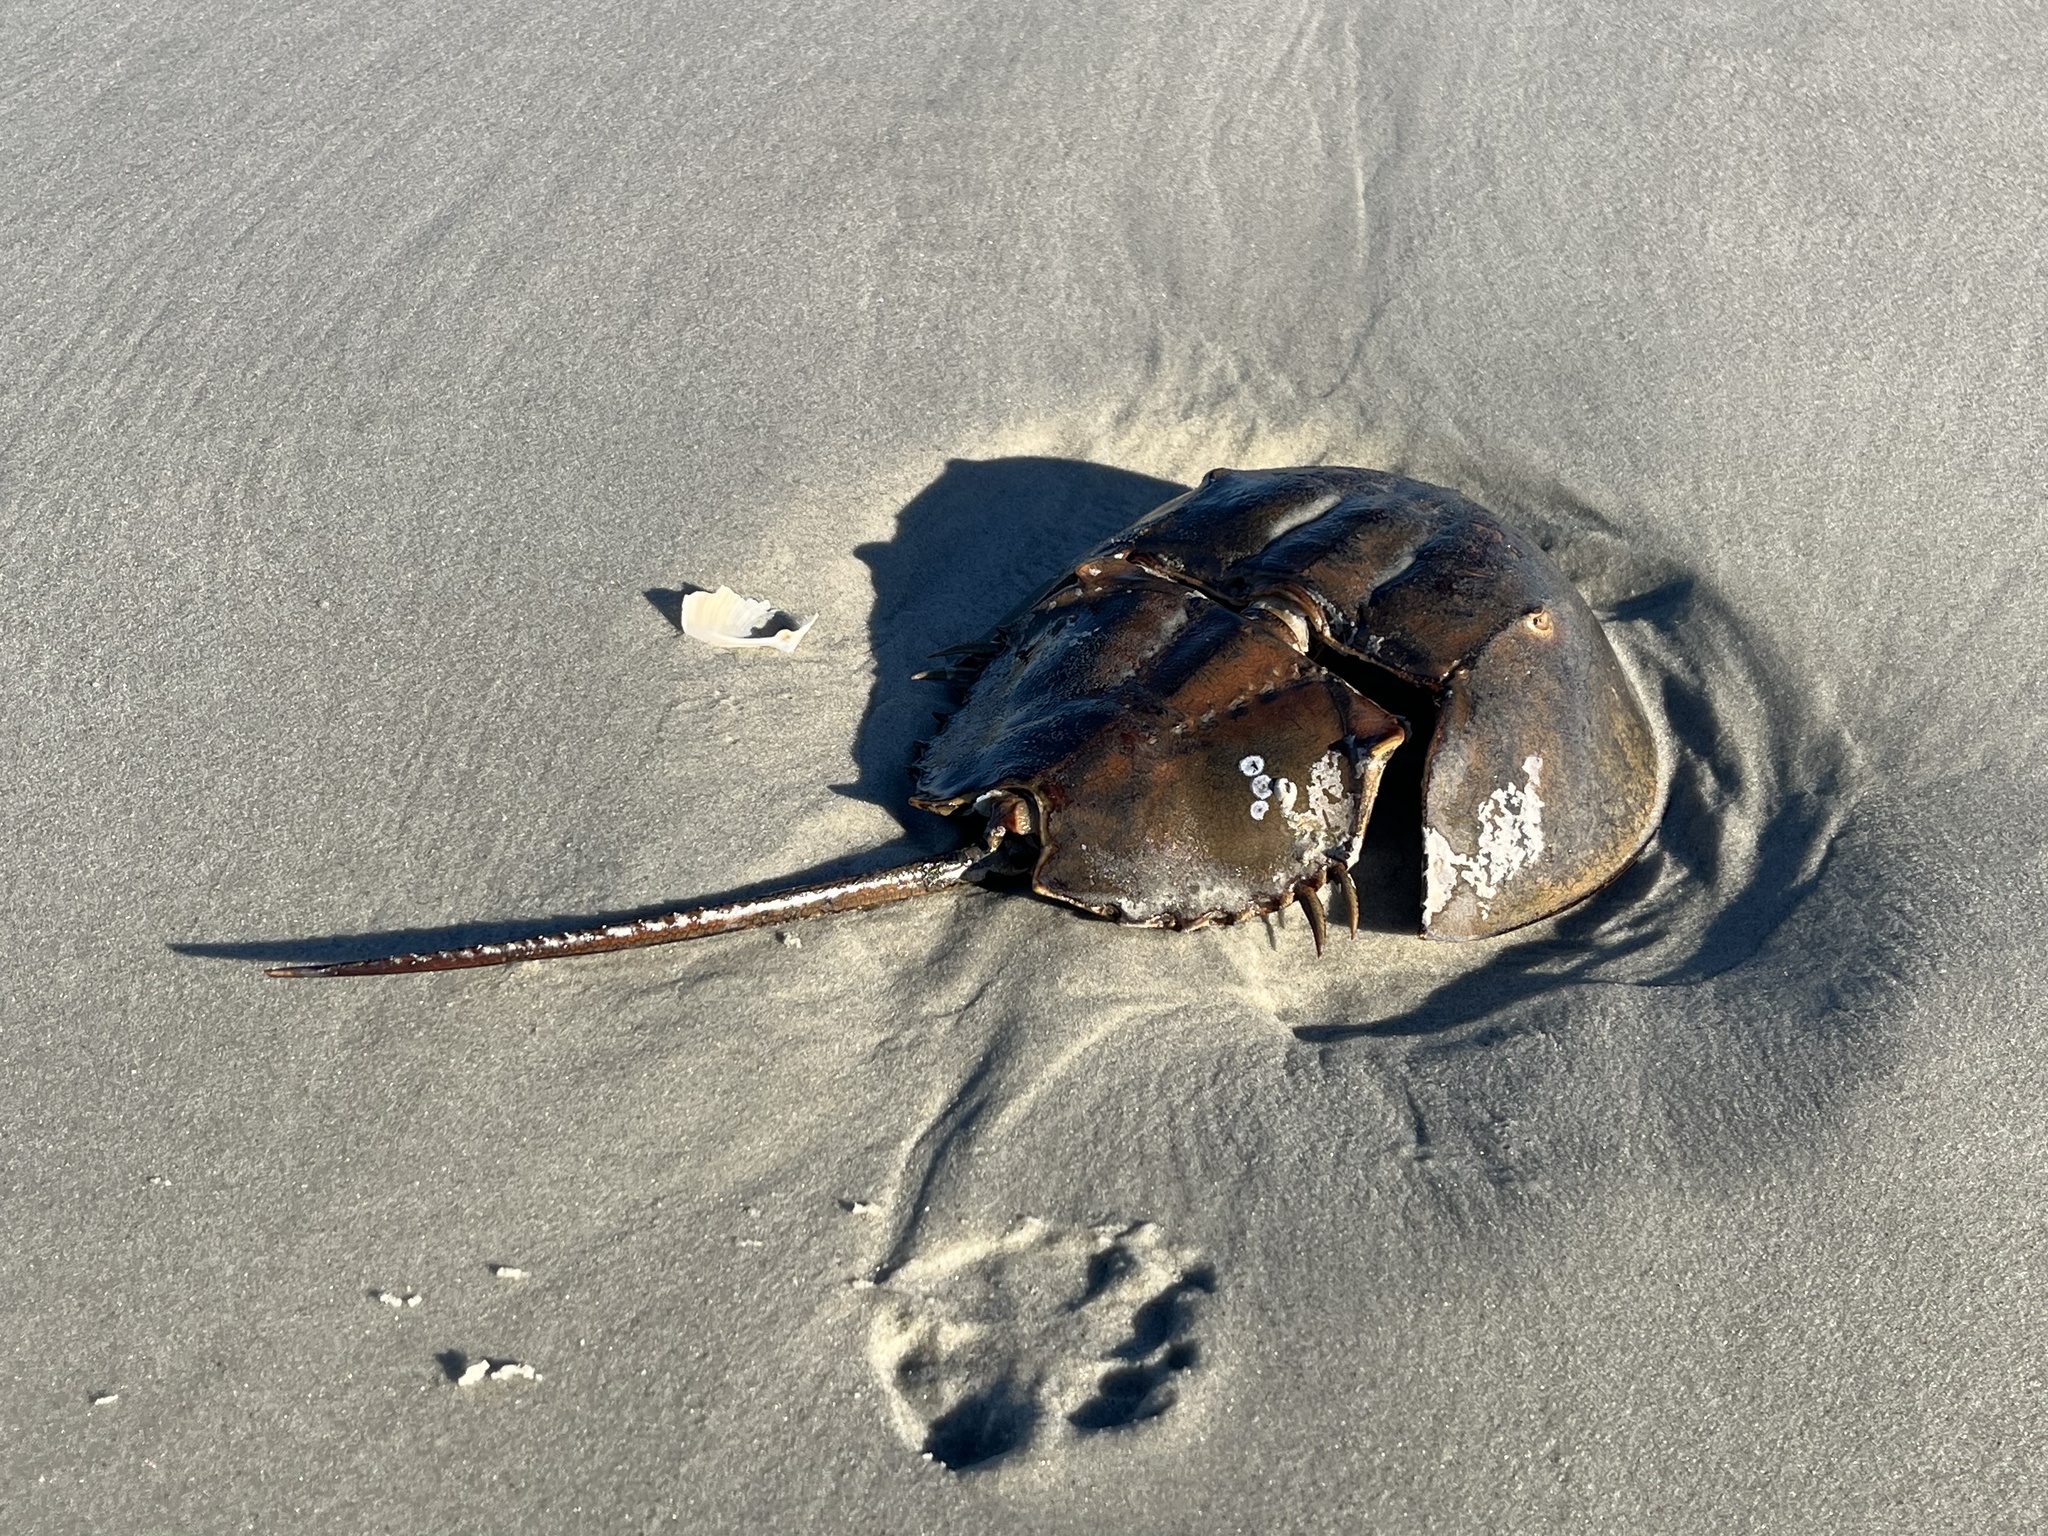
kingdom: Animalia
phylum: Arthropoda
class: Merostomata
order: Xiphosurida
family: Limulidae
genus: Limulus
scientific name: Limulus polyphemus
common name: Horseshoe crab
